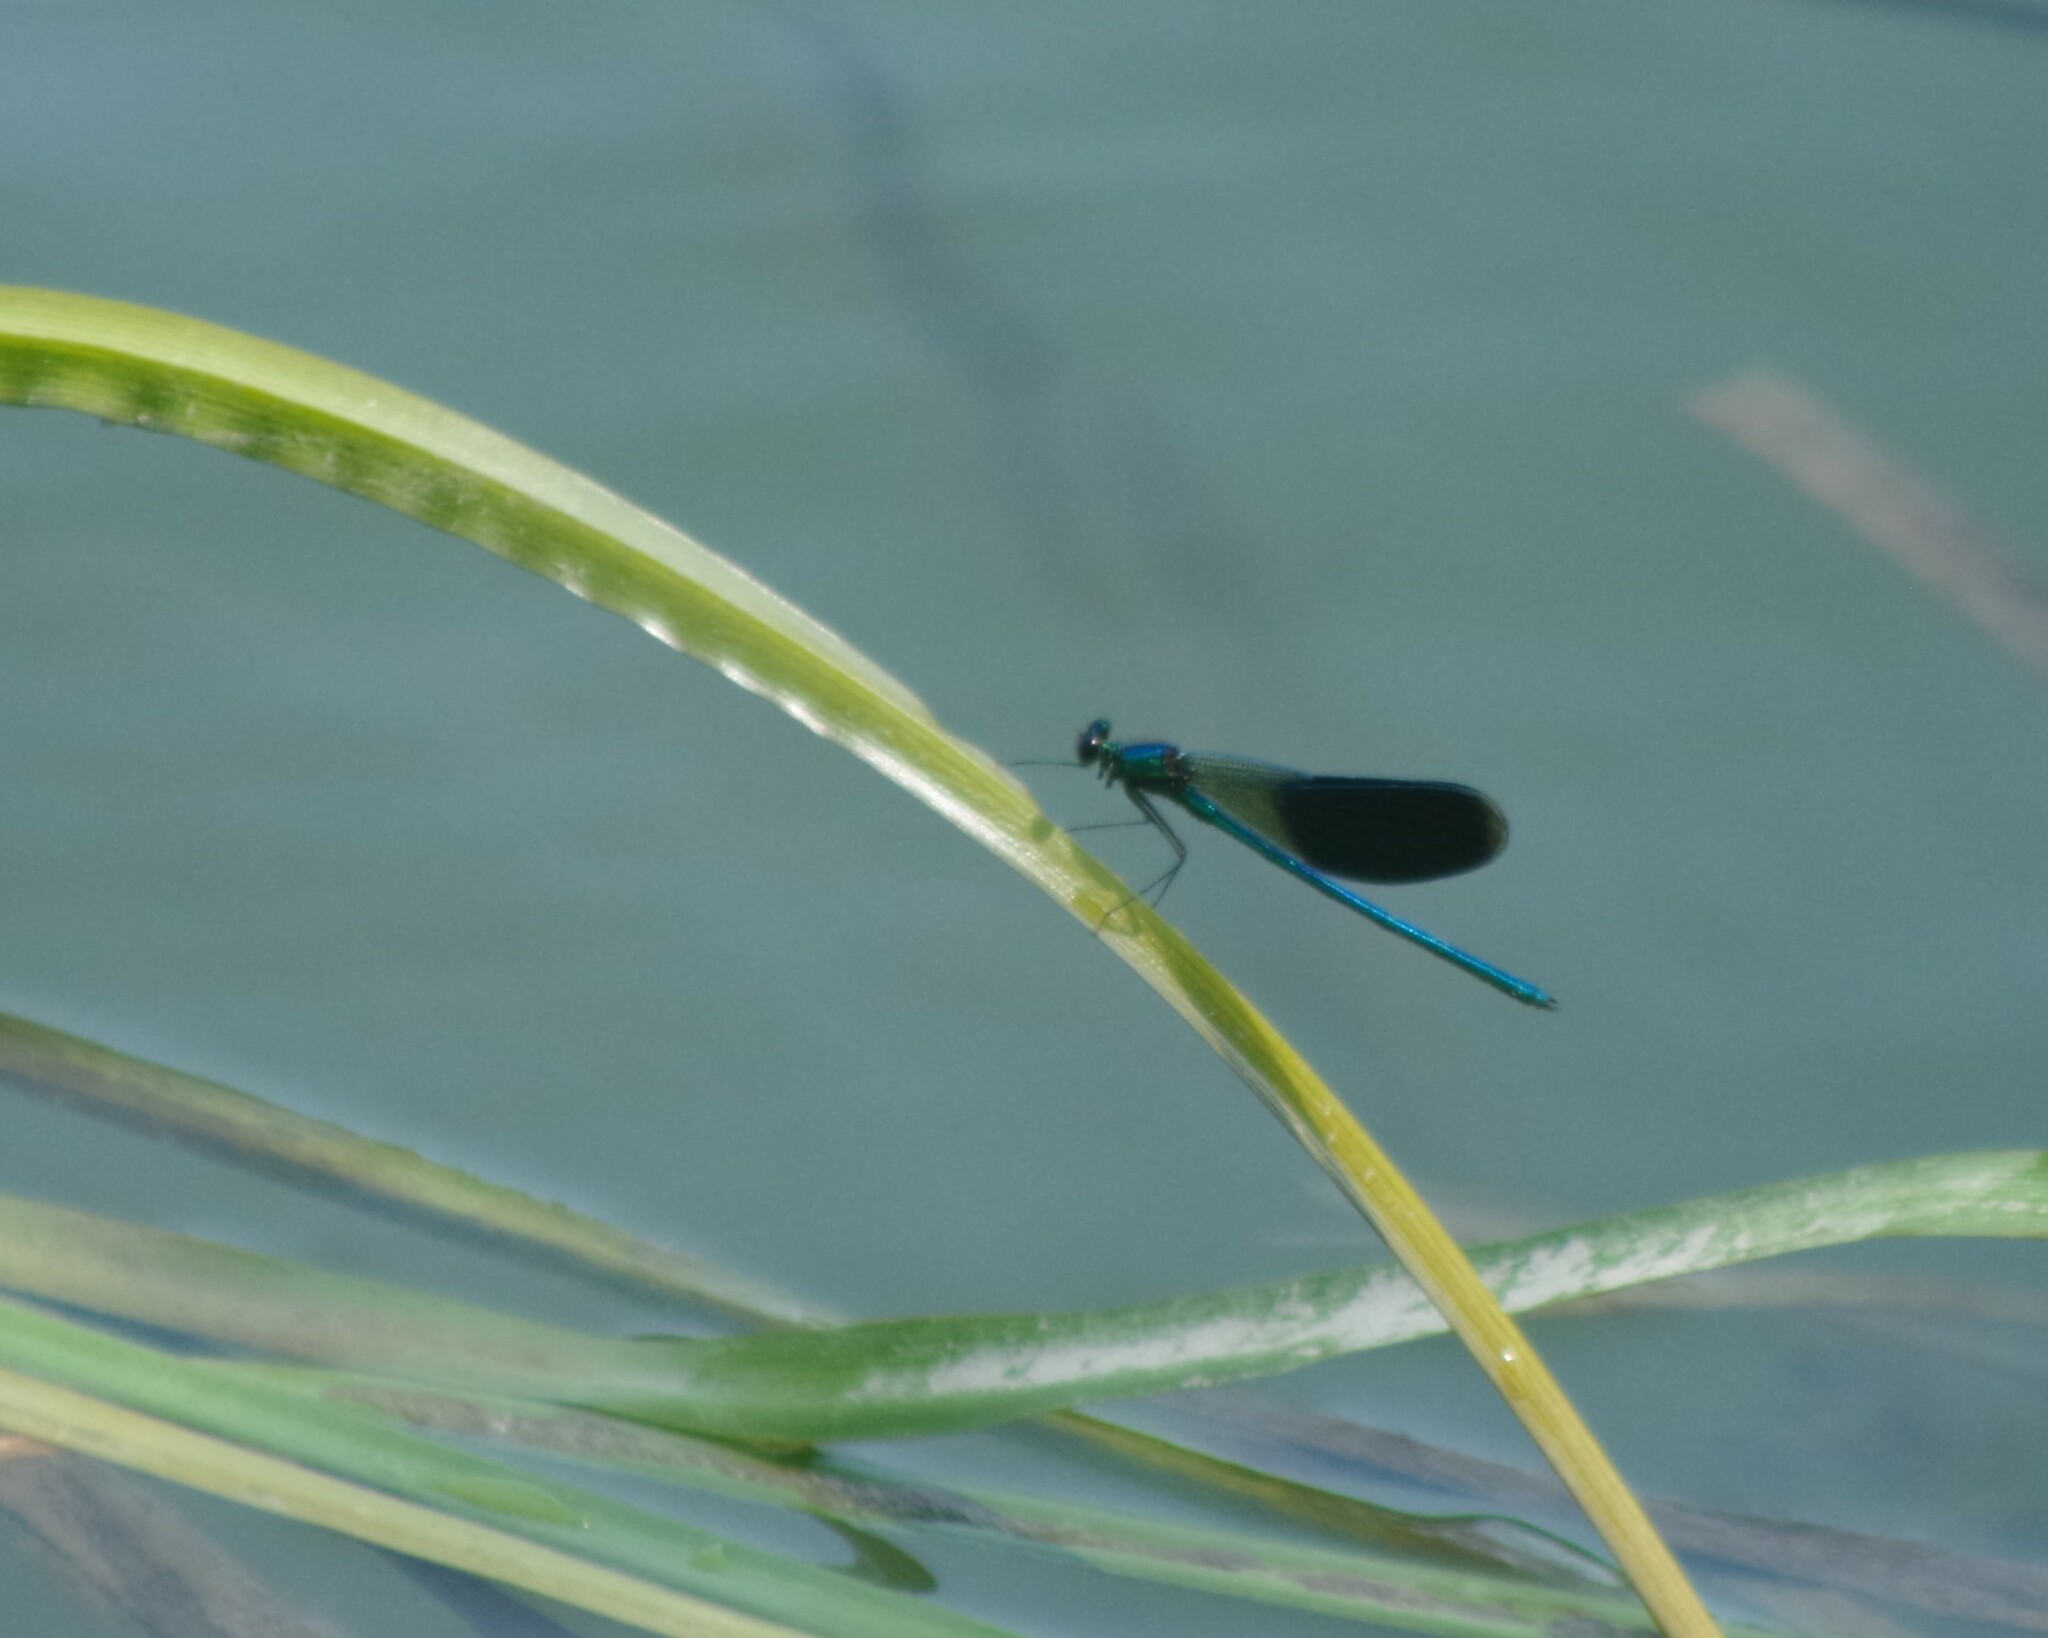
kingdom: Animalia
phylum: Arthropoda
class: Insecta
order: Odonata
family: Calopterygidae
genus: Calopteryx
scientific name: Calopteryx splendens
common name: Banded demoiselle
